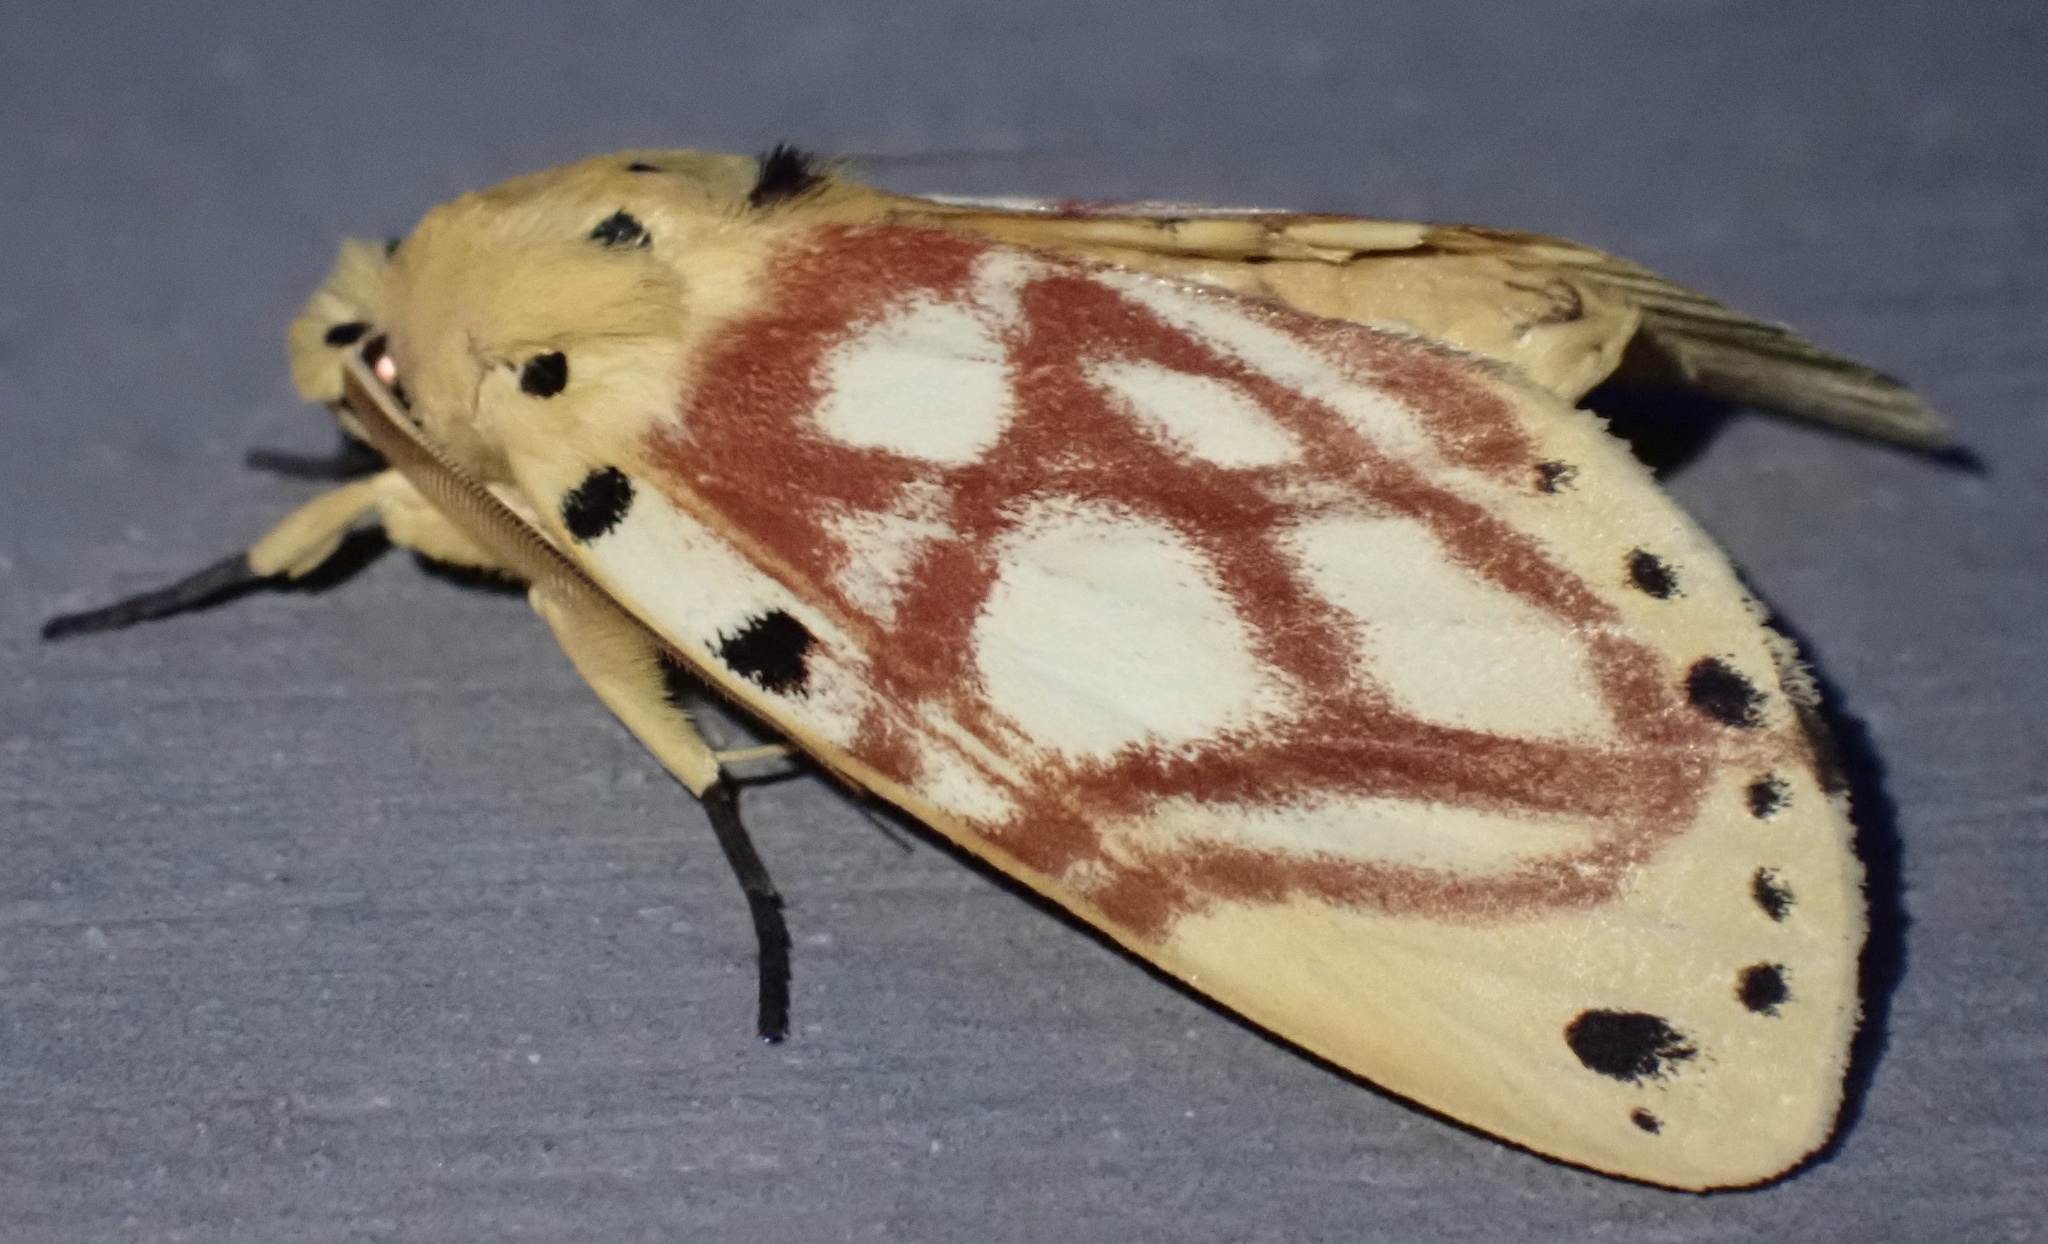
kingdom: Animalia
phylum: Arthropoda
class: Insecta
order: Lepidoptera
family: Notodontidae
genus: Parabasis
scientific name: Parabasis pratti
